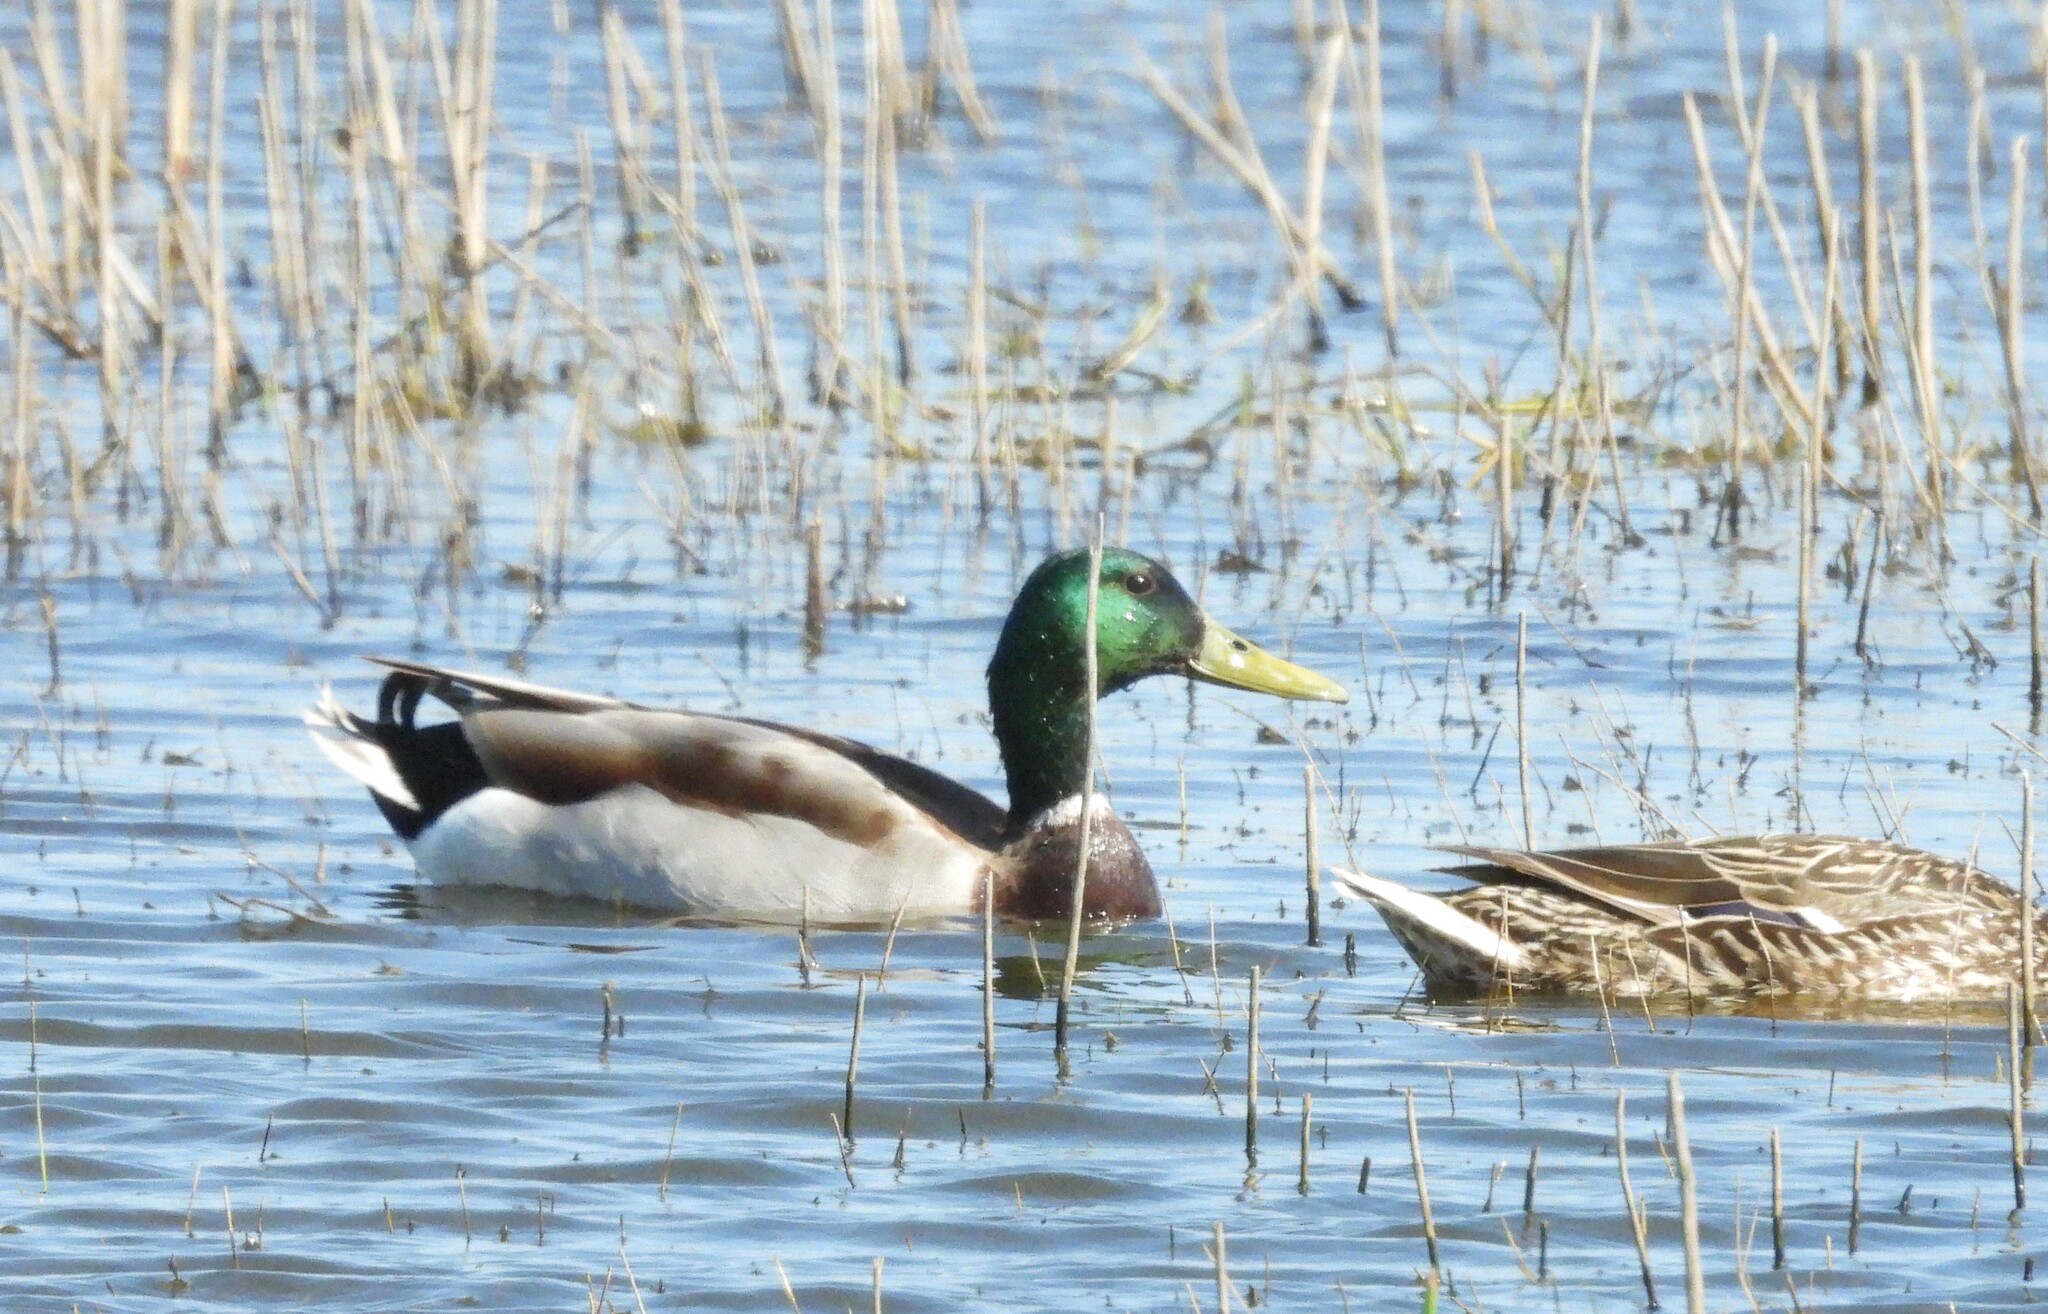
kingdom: Animalia
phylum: Chordata
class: Aves
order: Anseriformes
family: Anatidae
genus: Anas
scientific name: Anas platyrhynchos
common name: Mallard
